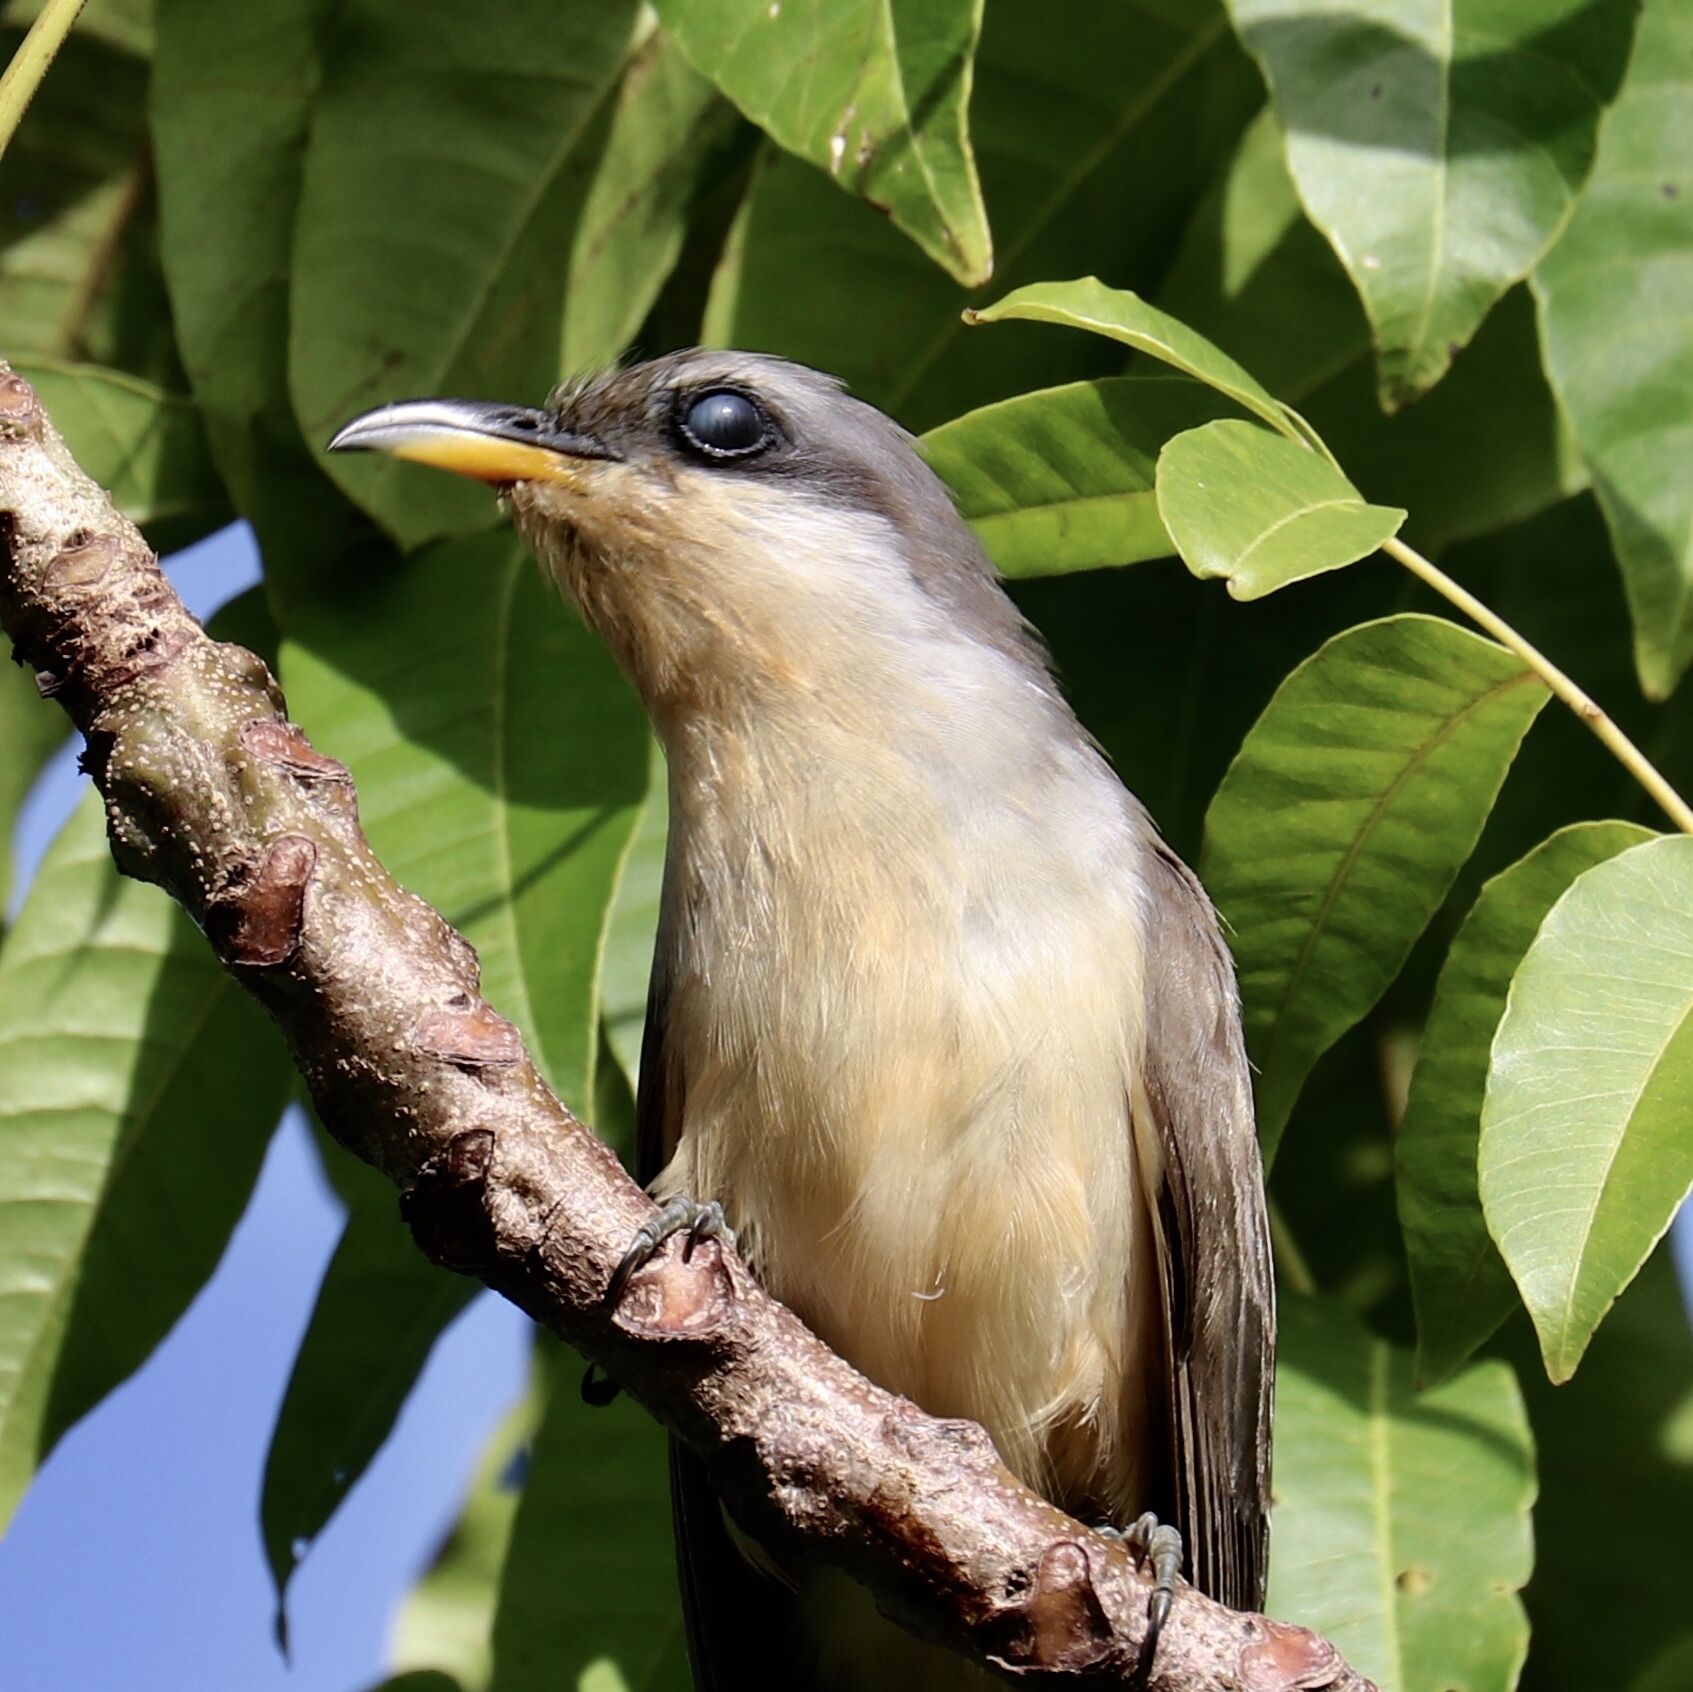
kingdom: Animalia
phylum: Chordata
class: Aves
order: Cuculiformes
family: Cuculidae
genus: Coccyzus
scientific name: Coccyzus minor
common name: Mangrove cuckoo
